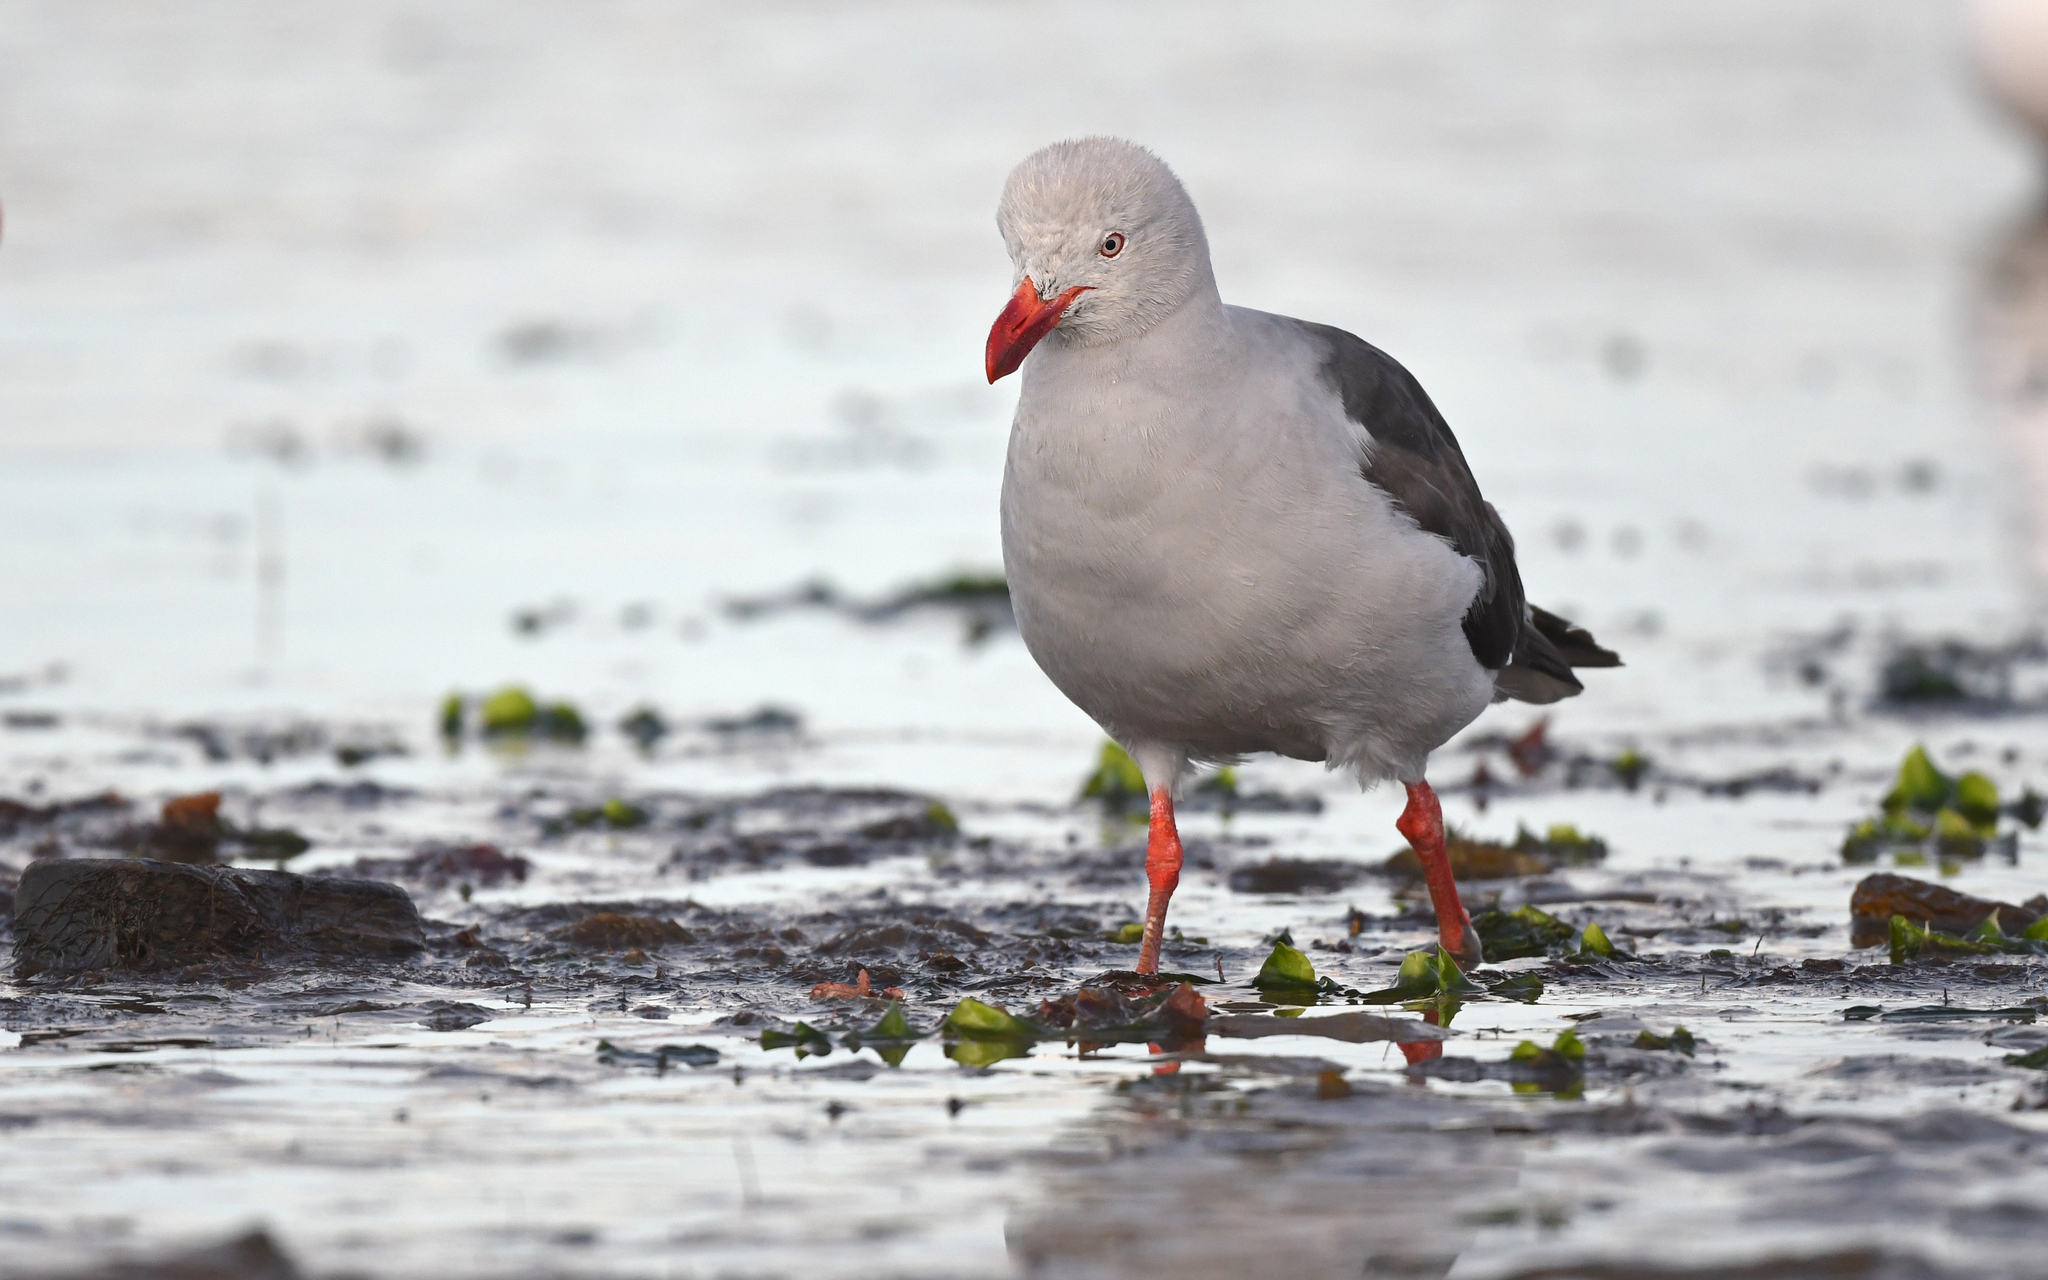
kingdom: Animalia
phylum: Chordata
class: Aves
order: Charadriiformes
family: Laridae
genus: Leucophaeus
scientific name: Leucophaeus scoresbii
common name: Dolphin gull
